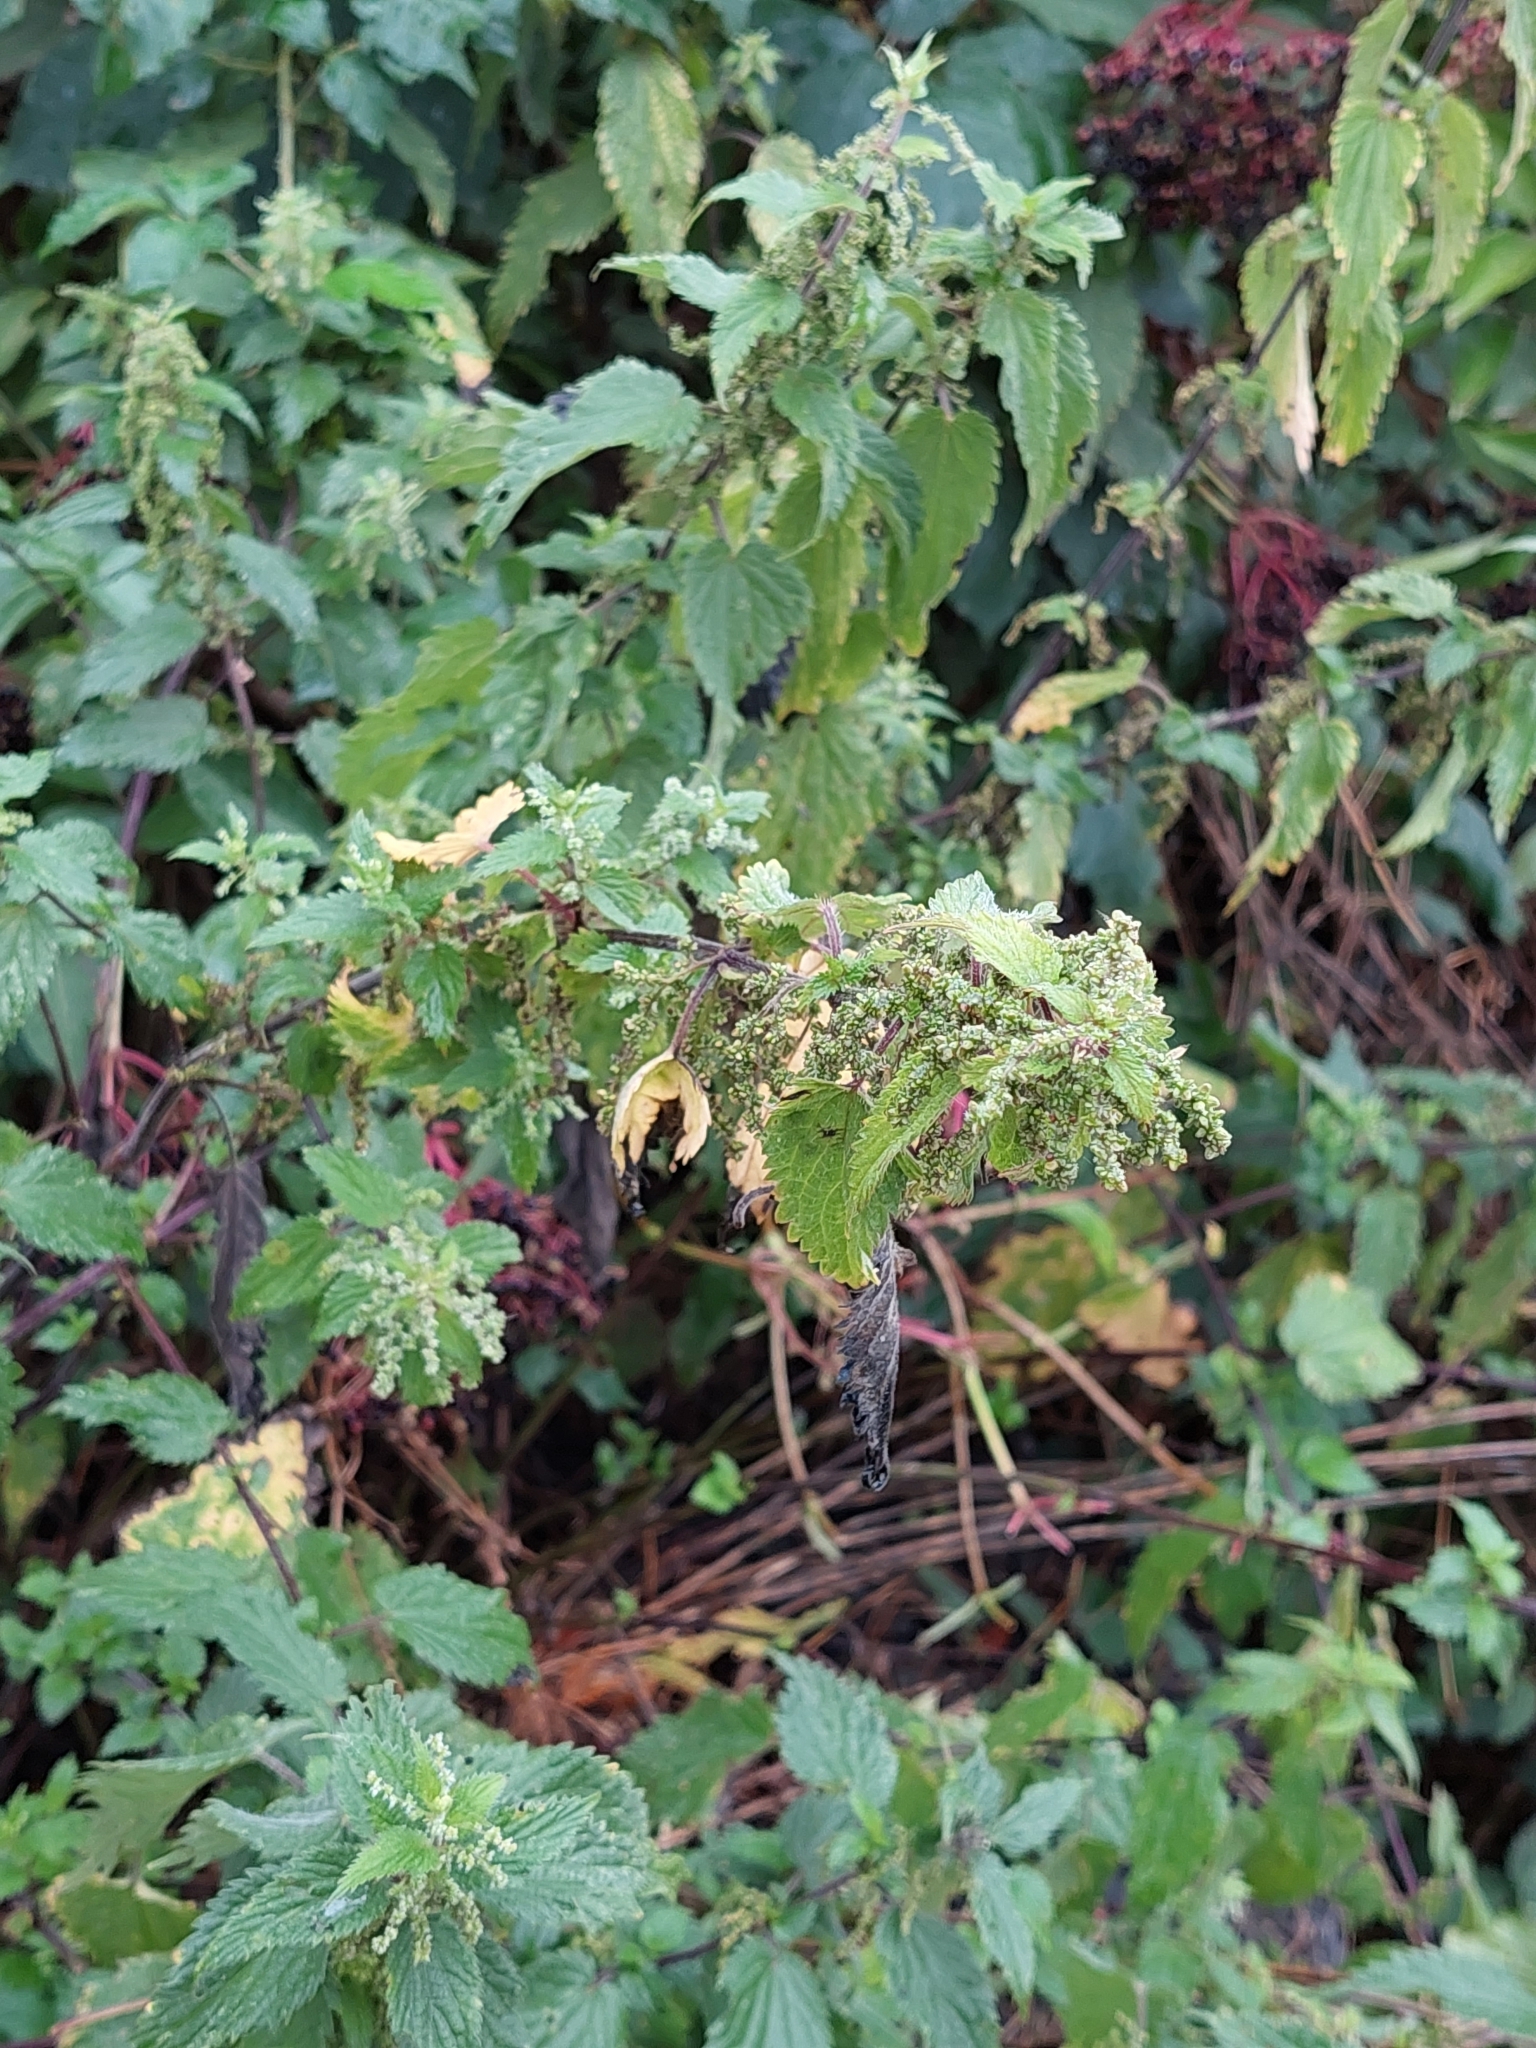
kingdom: Plantae
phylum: Tracheophyta
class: Magnoliopsida
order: Rosales
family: Urticaceae
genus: Urtica
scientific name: Urtica dioica
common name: Common nettle
